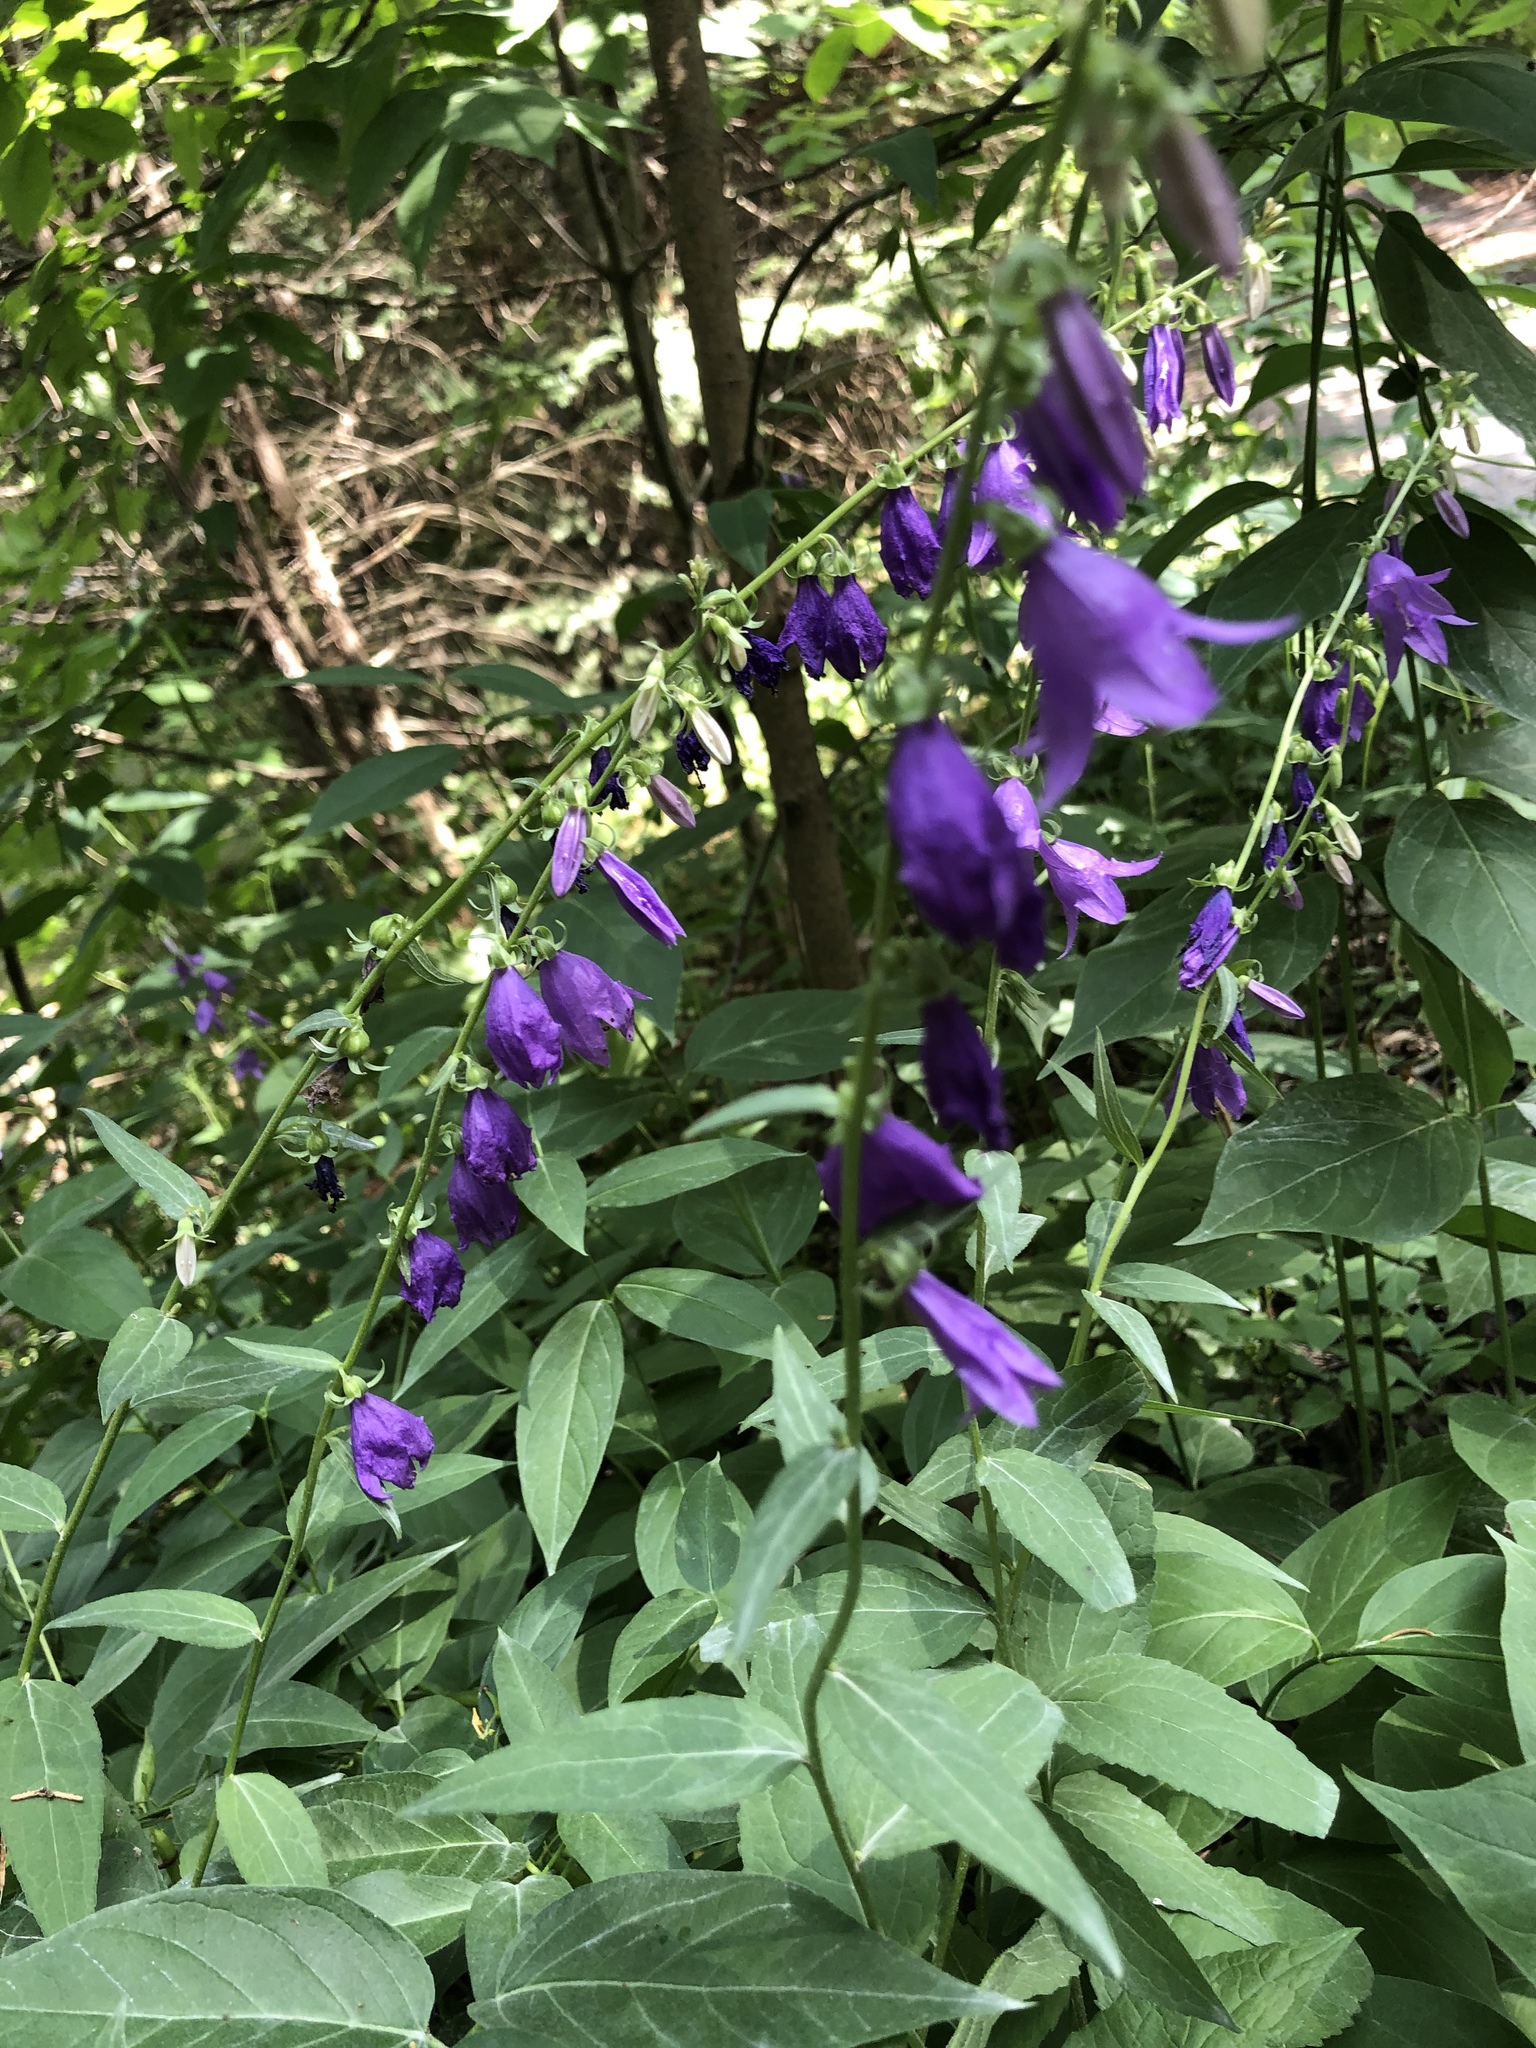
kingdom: Plantae
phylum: Tracheophyta
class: Magnoliopsida
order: Asterales
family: Campanulaceae
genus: Campanula
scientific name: Campanula rapunculoides
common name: Creeping bellflower
